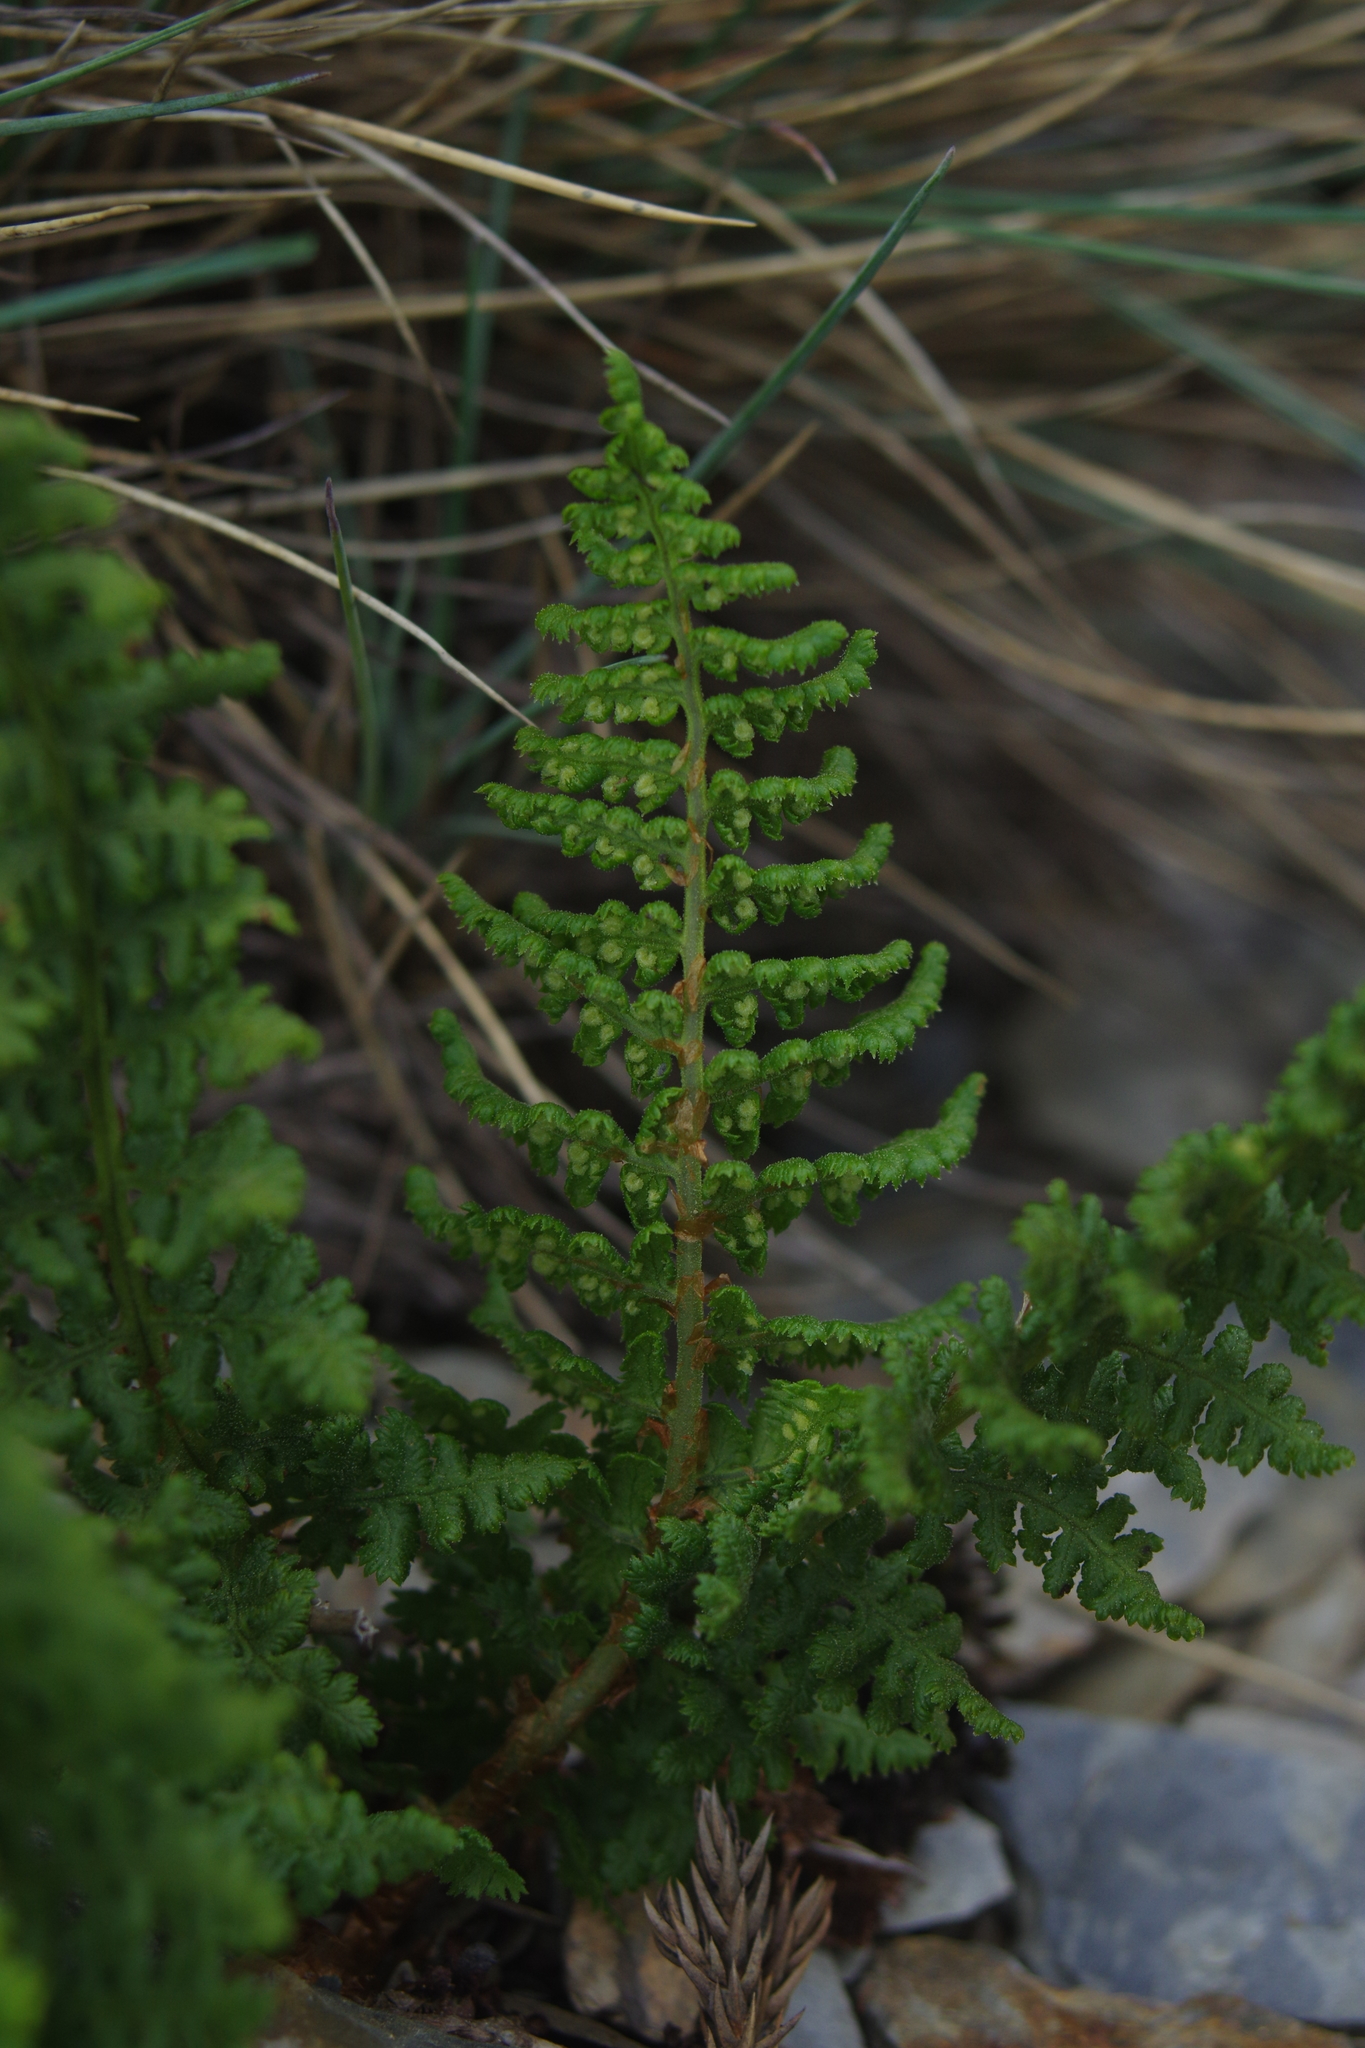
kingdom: Plantae
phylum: Tracheophyta
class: Polypodiopsida
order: Polypodiales
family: Dryopteridaceae
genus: Dryopteris
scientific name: Dryopteris alpestris
